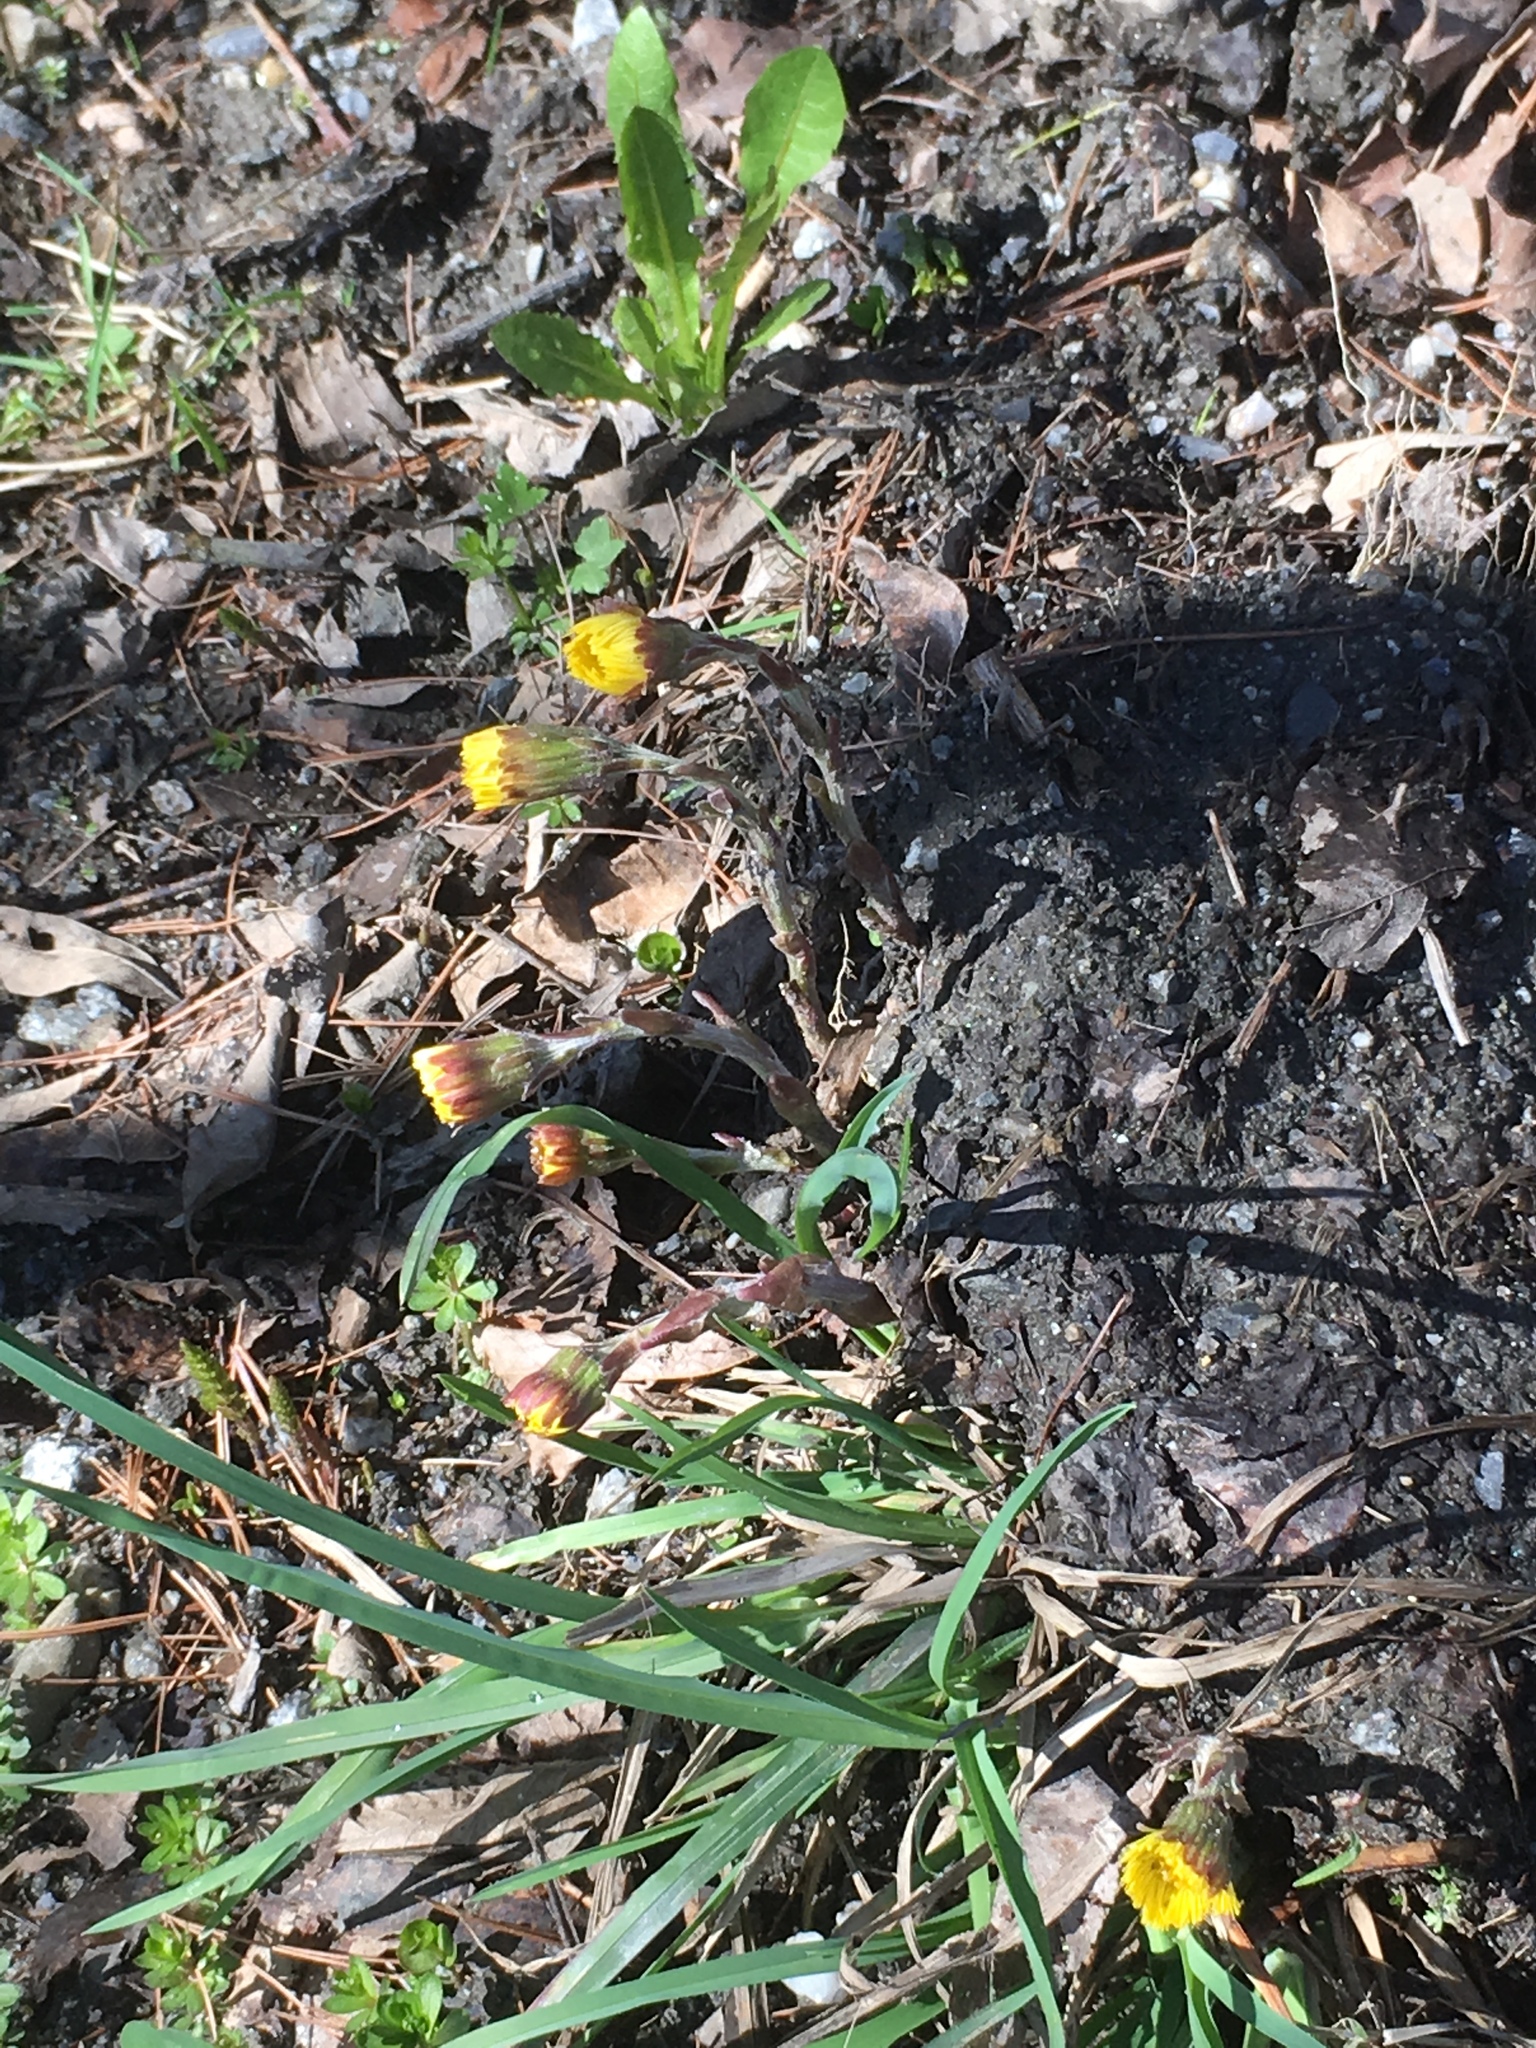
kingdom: Plantae
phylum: Tracheophyta
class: Magnoliopsida
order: Asterales
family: Asteraceae
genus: Tussilago
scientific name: Tussilago farfara
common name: Coltsfoot
